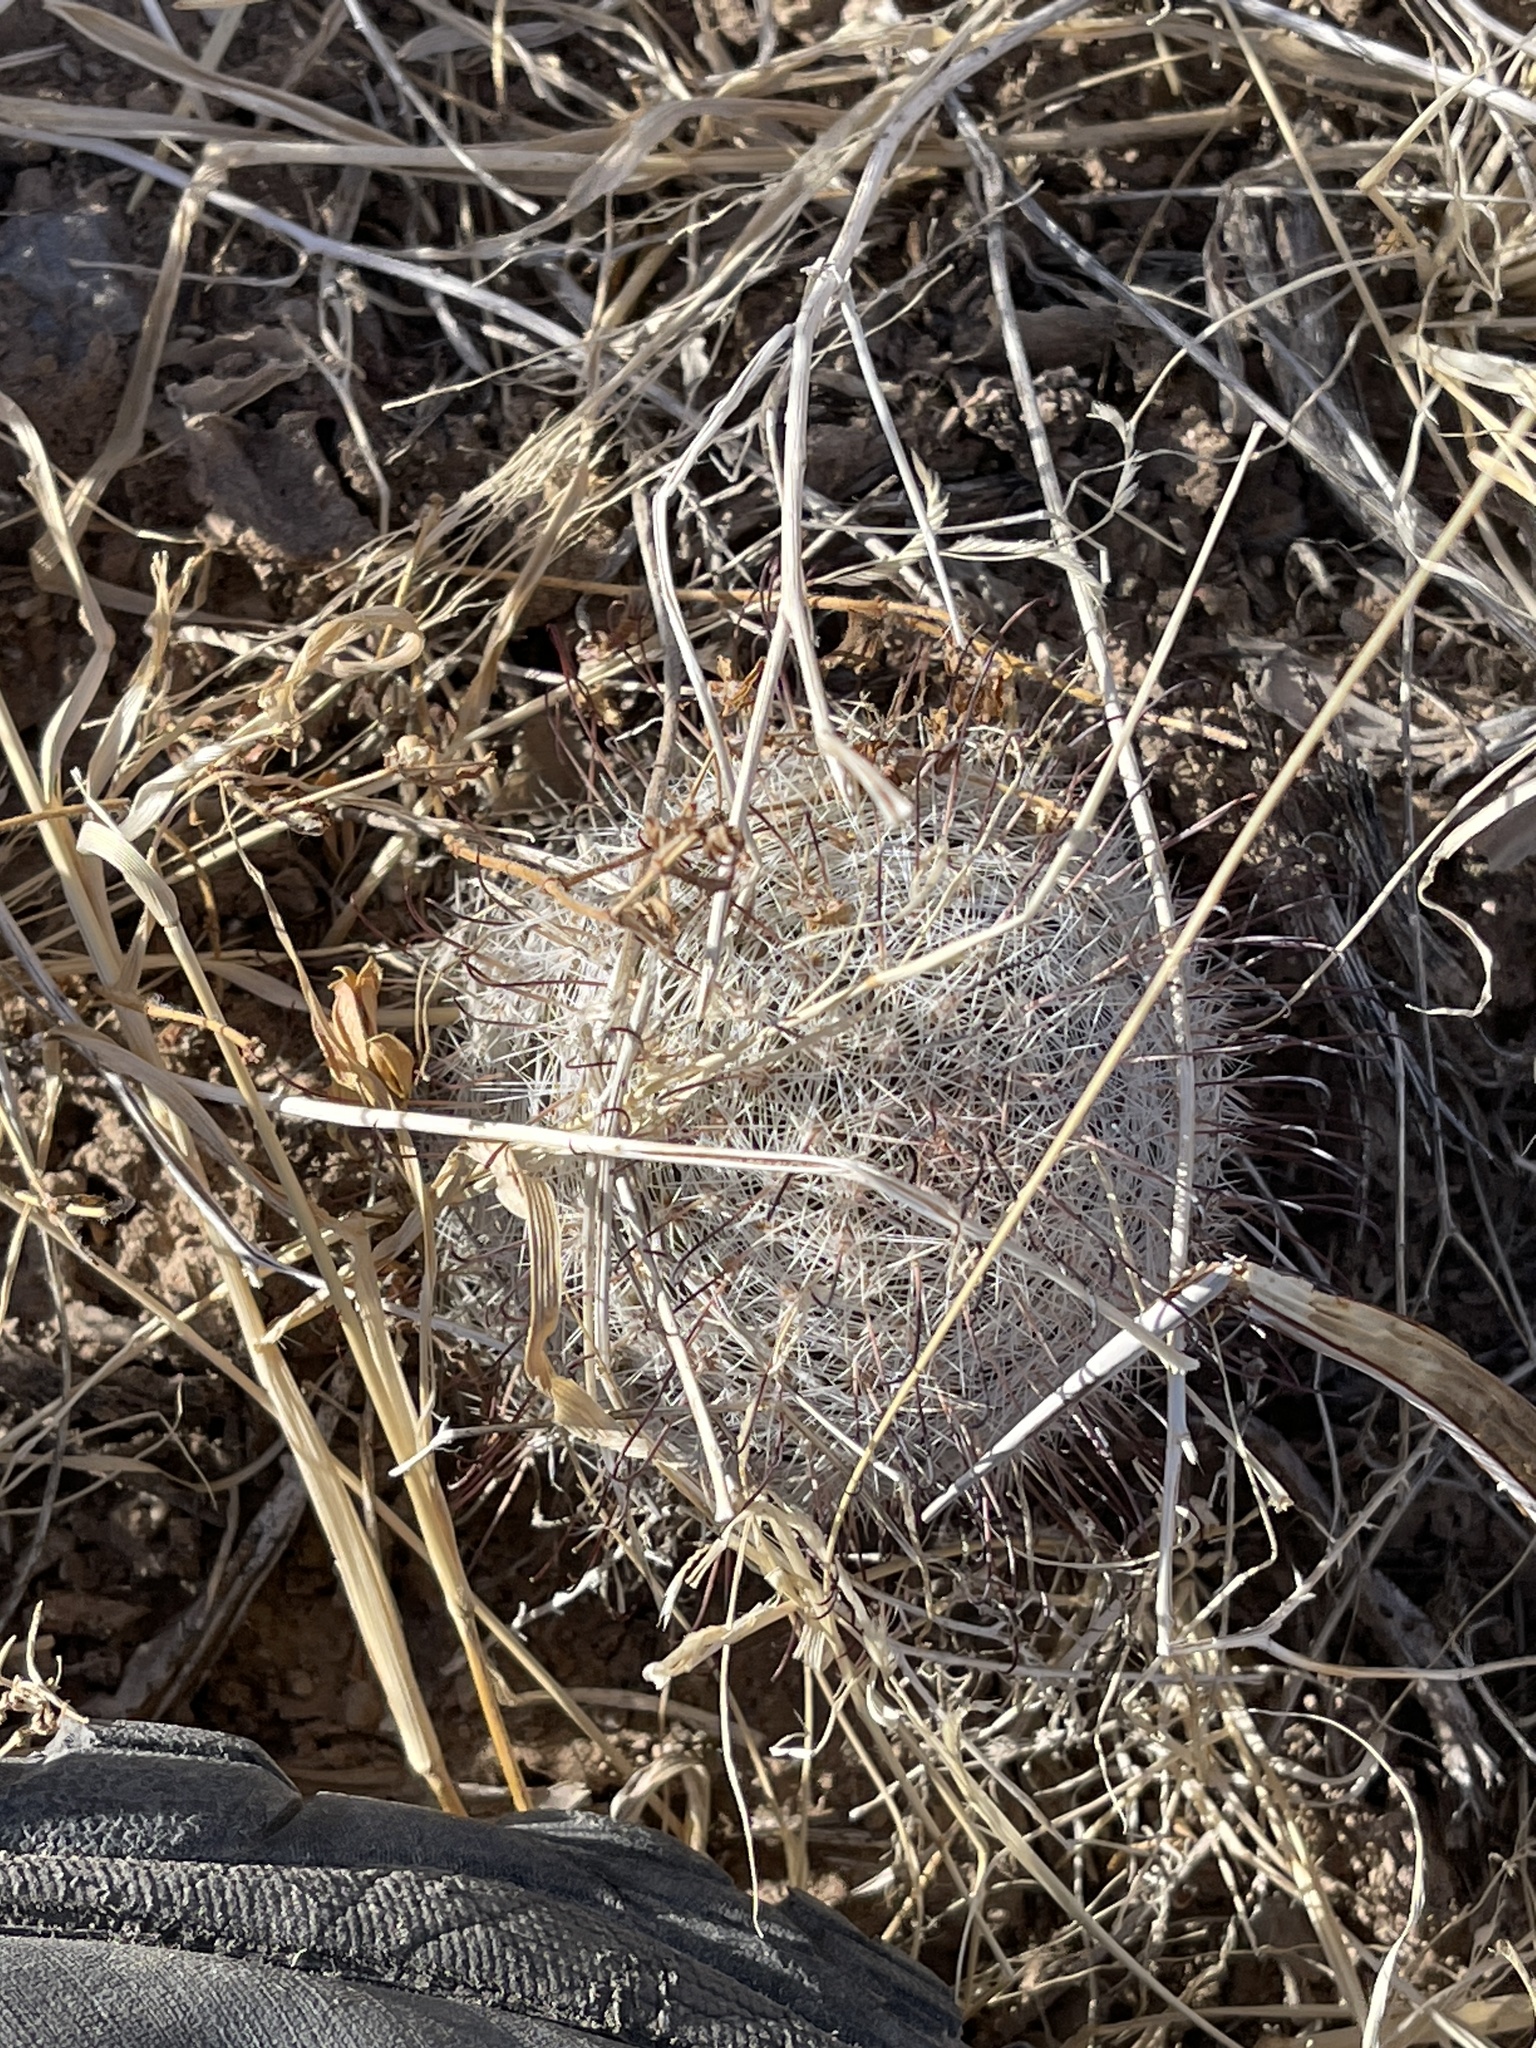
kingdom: Plantae
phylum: Tracheophyta
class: Magnoliopsida
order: Caryophyllales
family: Cactaceae
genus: Cochemiea
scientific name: Cochemiea grahamii
